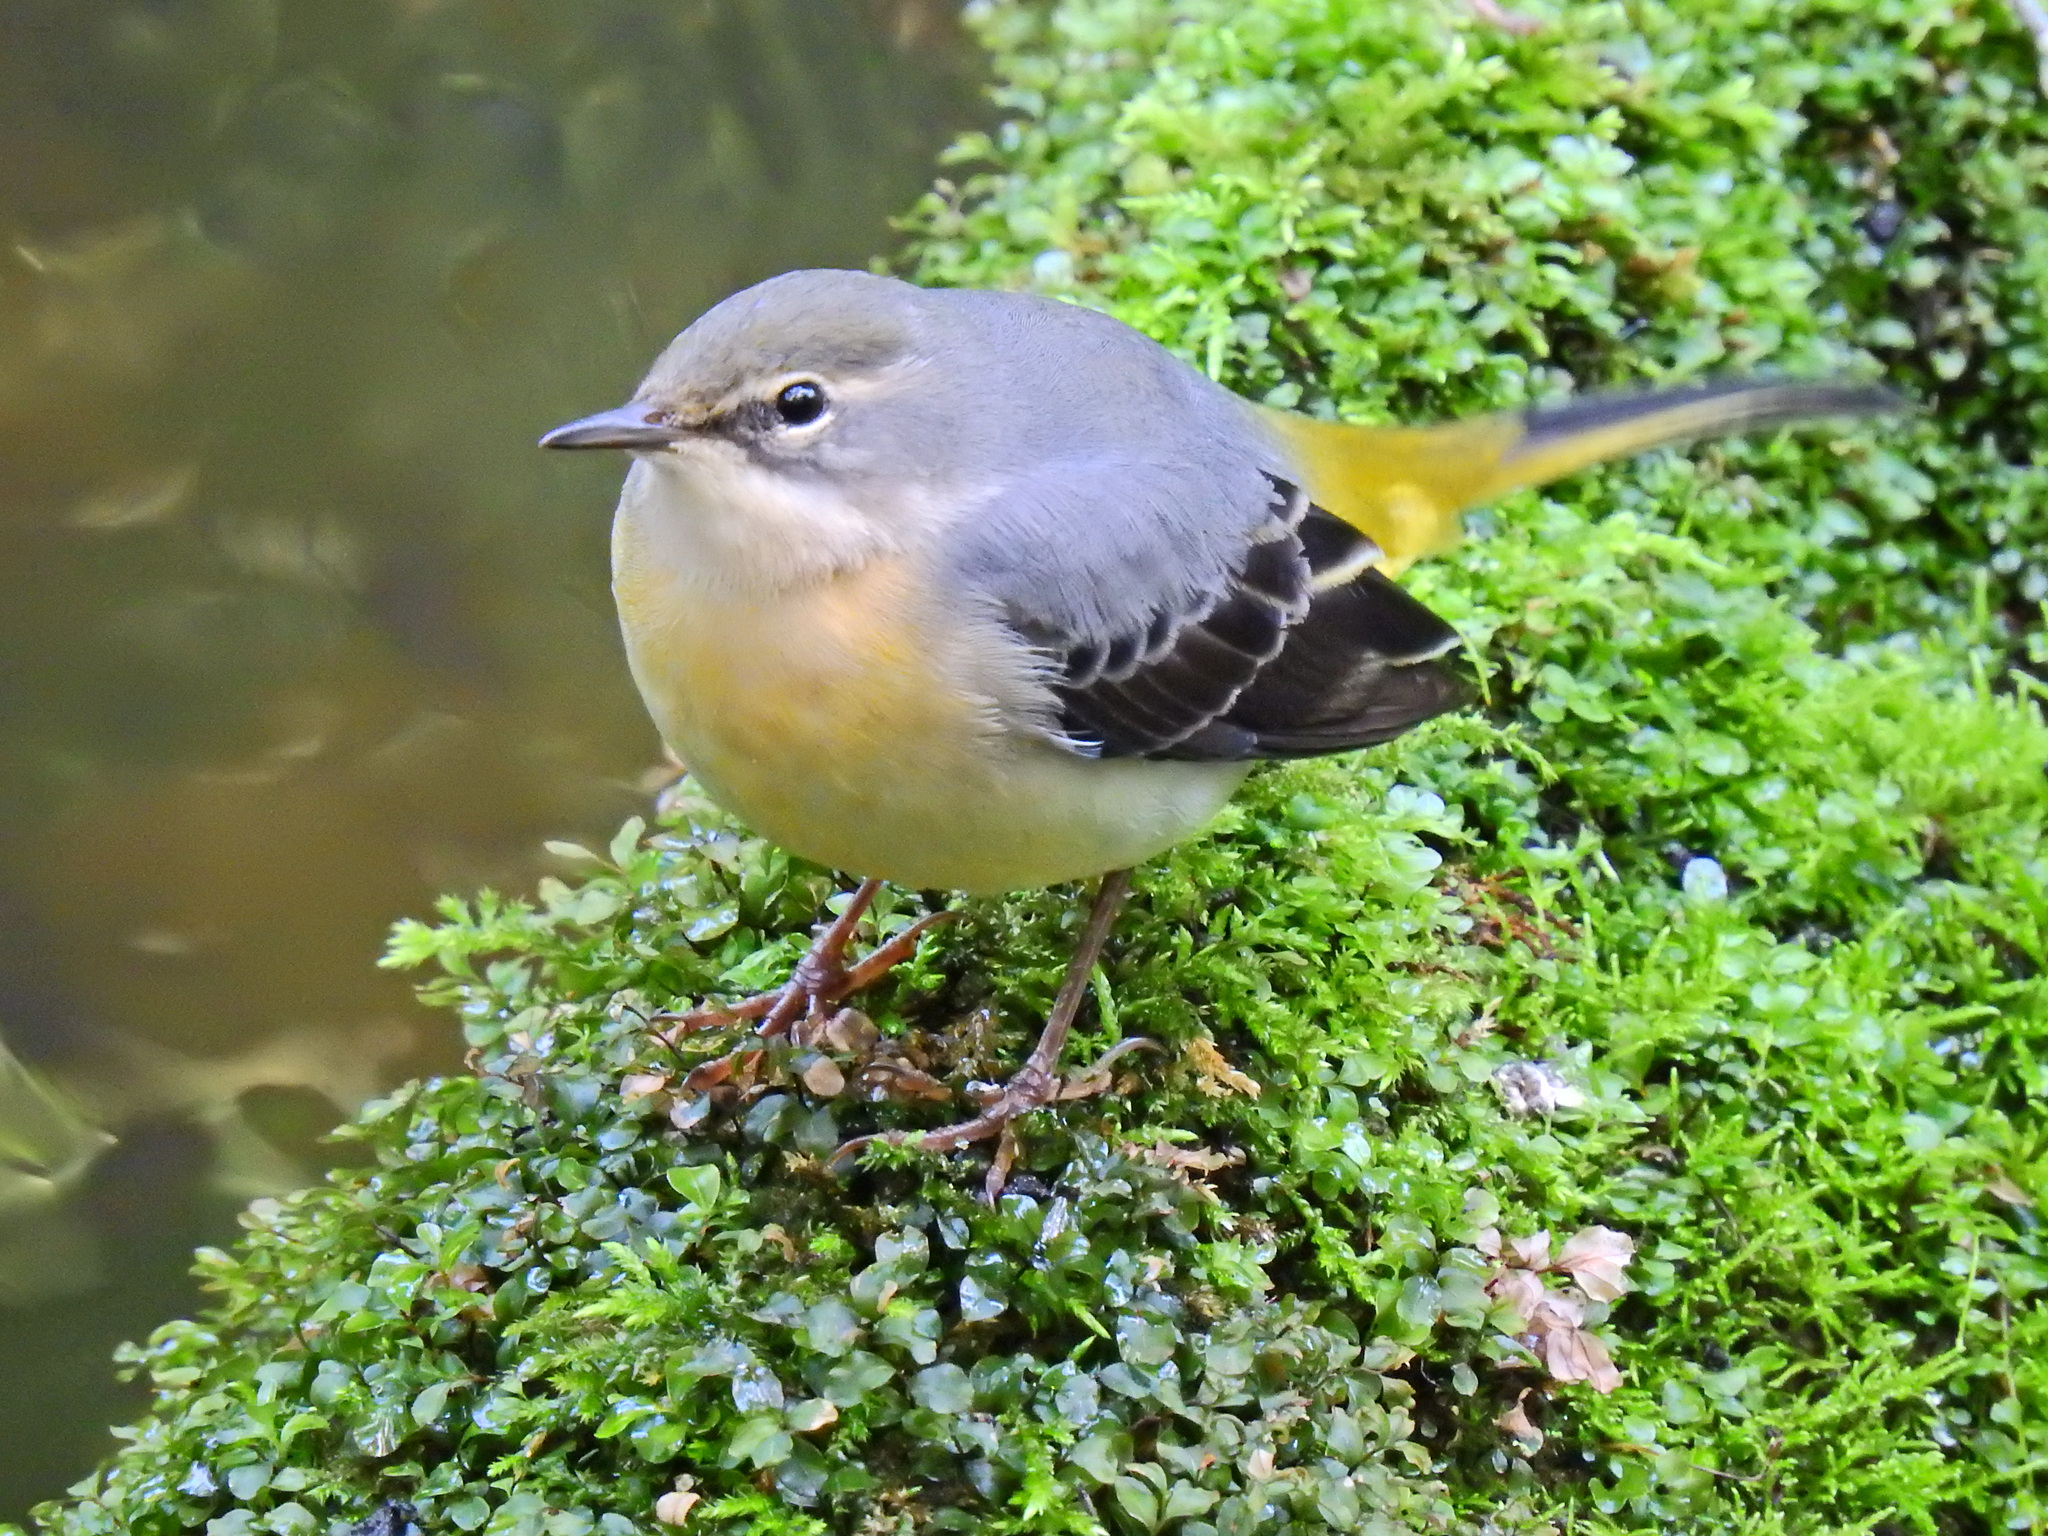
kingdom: Animalia
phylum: Chordata
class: Aves
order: Passeriformes
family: Motacillidae
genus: Motacilla
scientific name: Motacilla cinerea
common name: Grey wagtail
